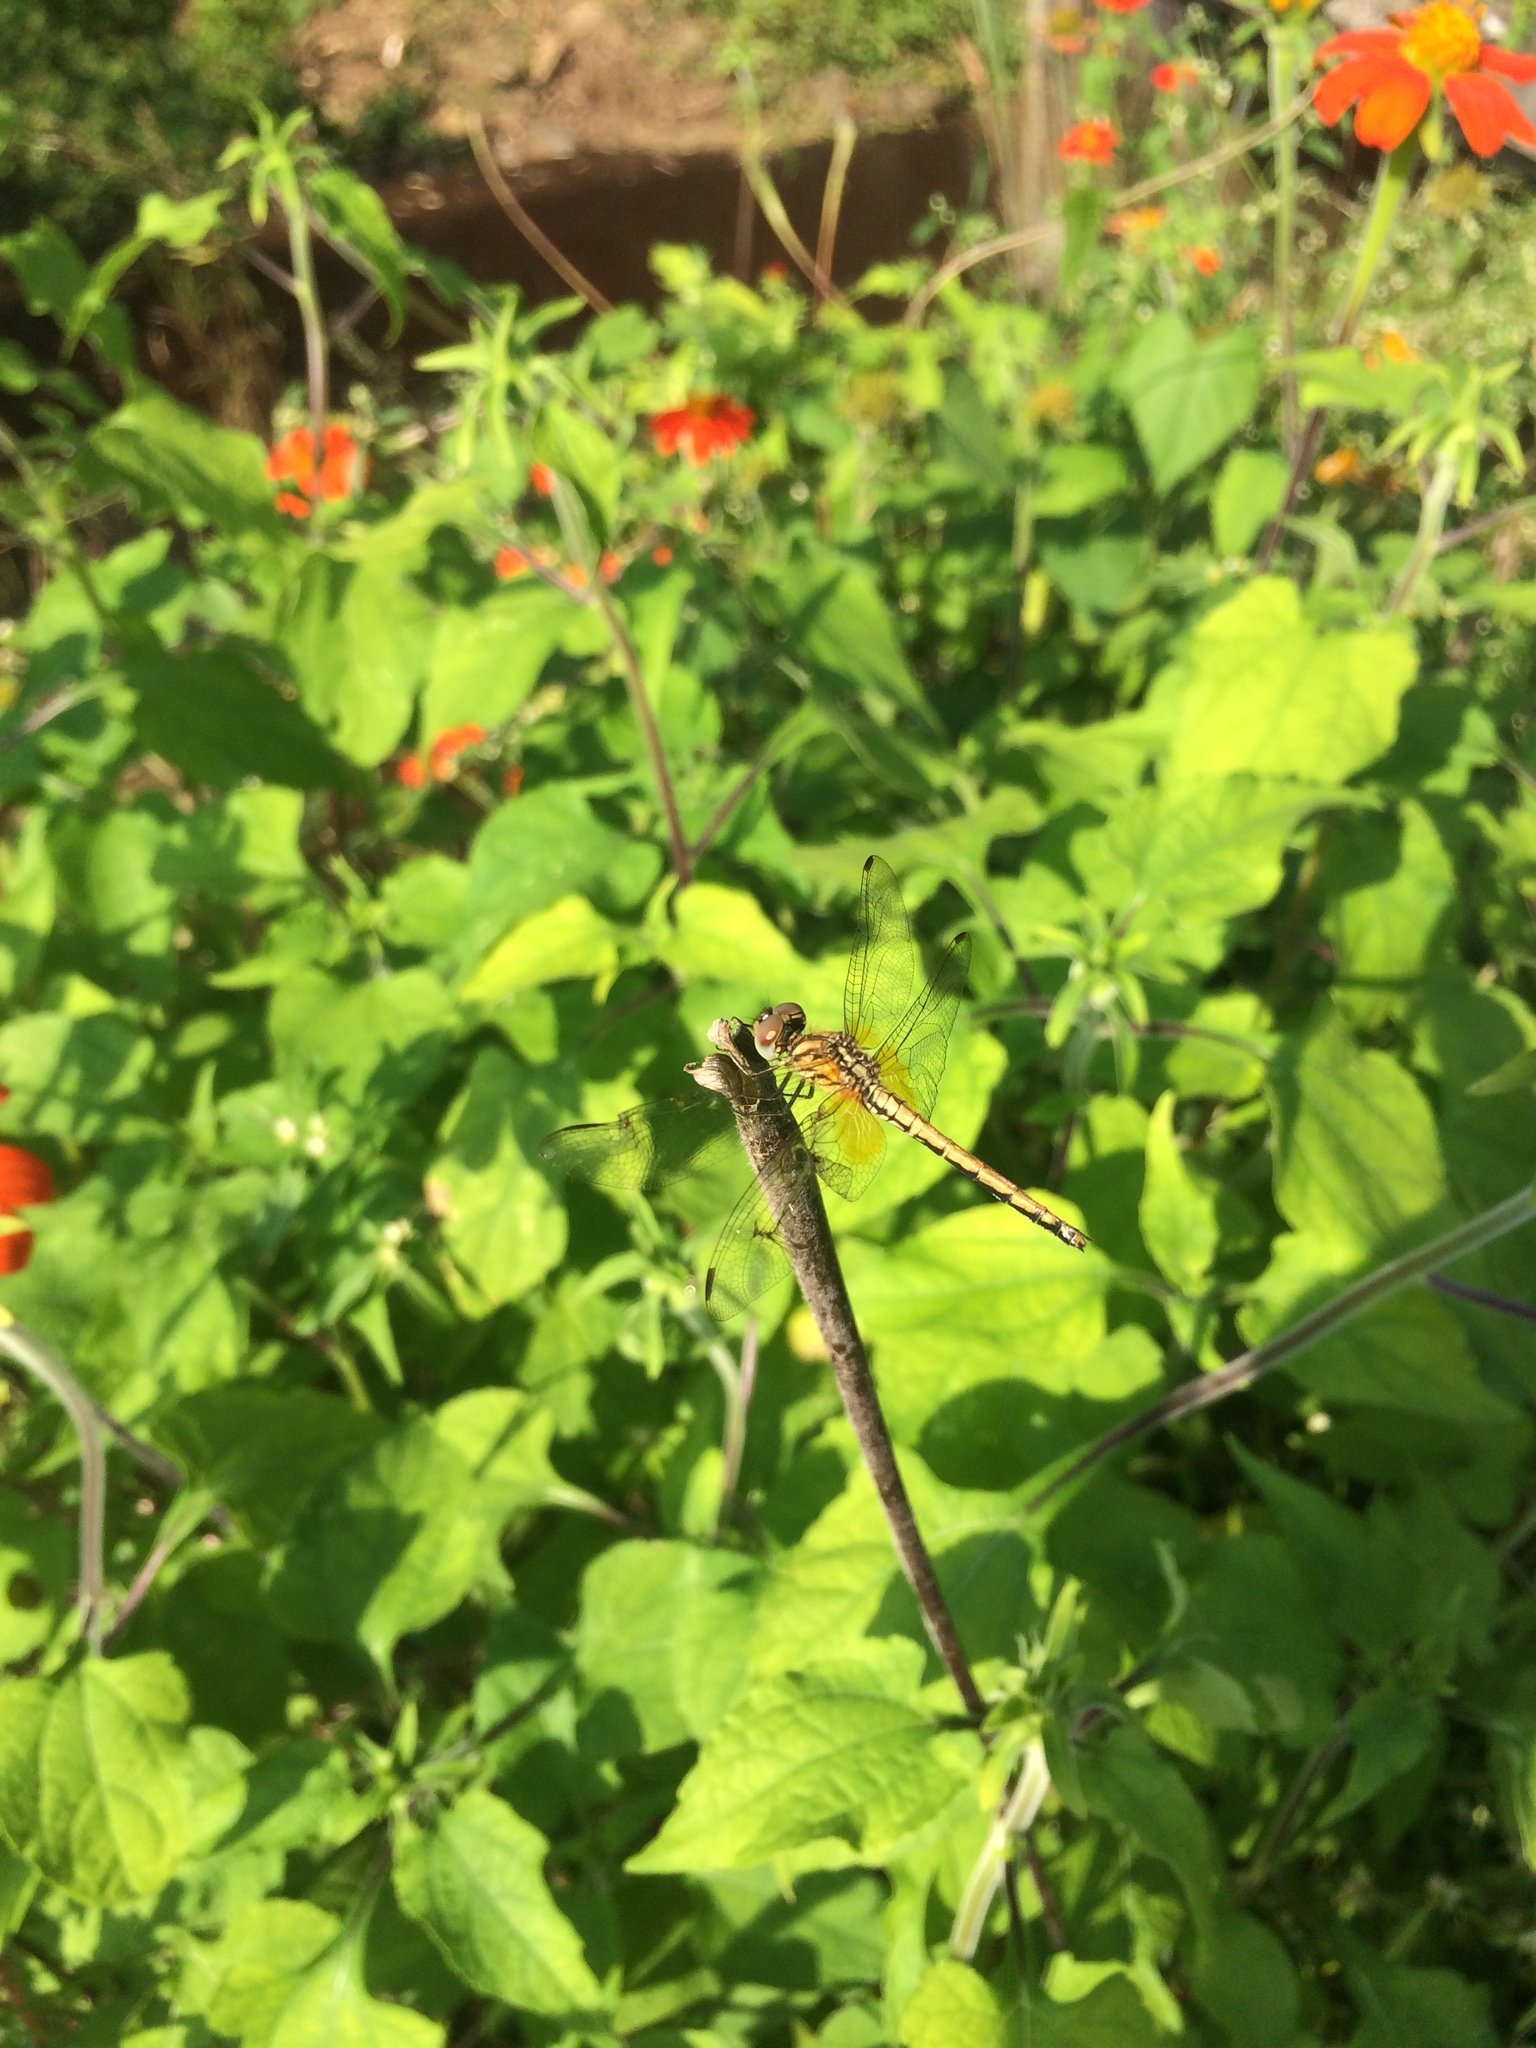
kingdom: Animalia
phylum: Arthropoda
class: Insecta
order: Odonata
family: Libellulidae
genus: Trithemis
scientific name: Trithemis aurora
